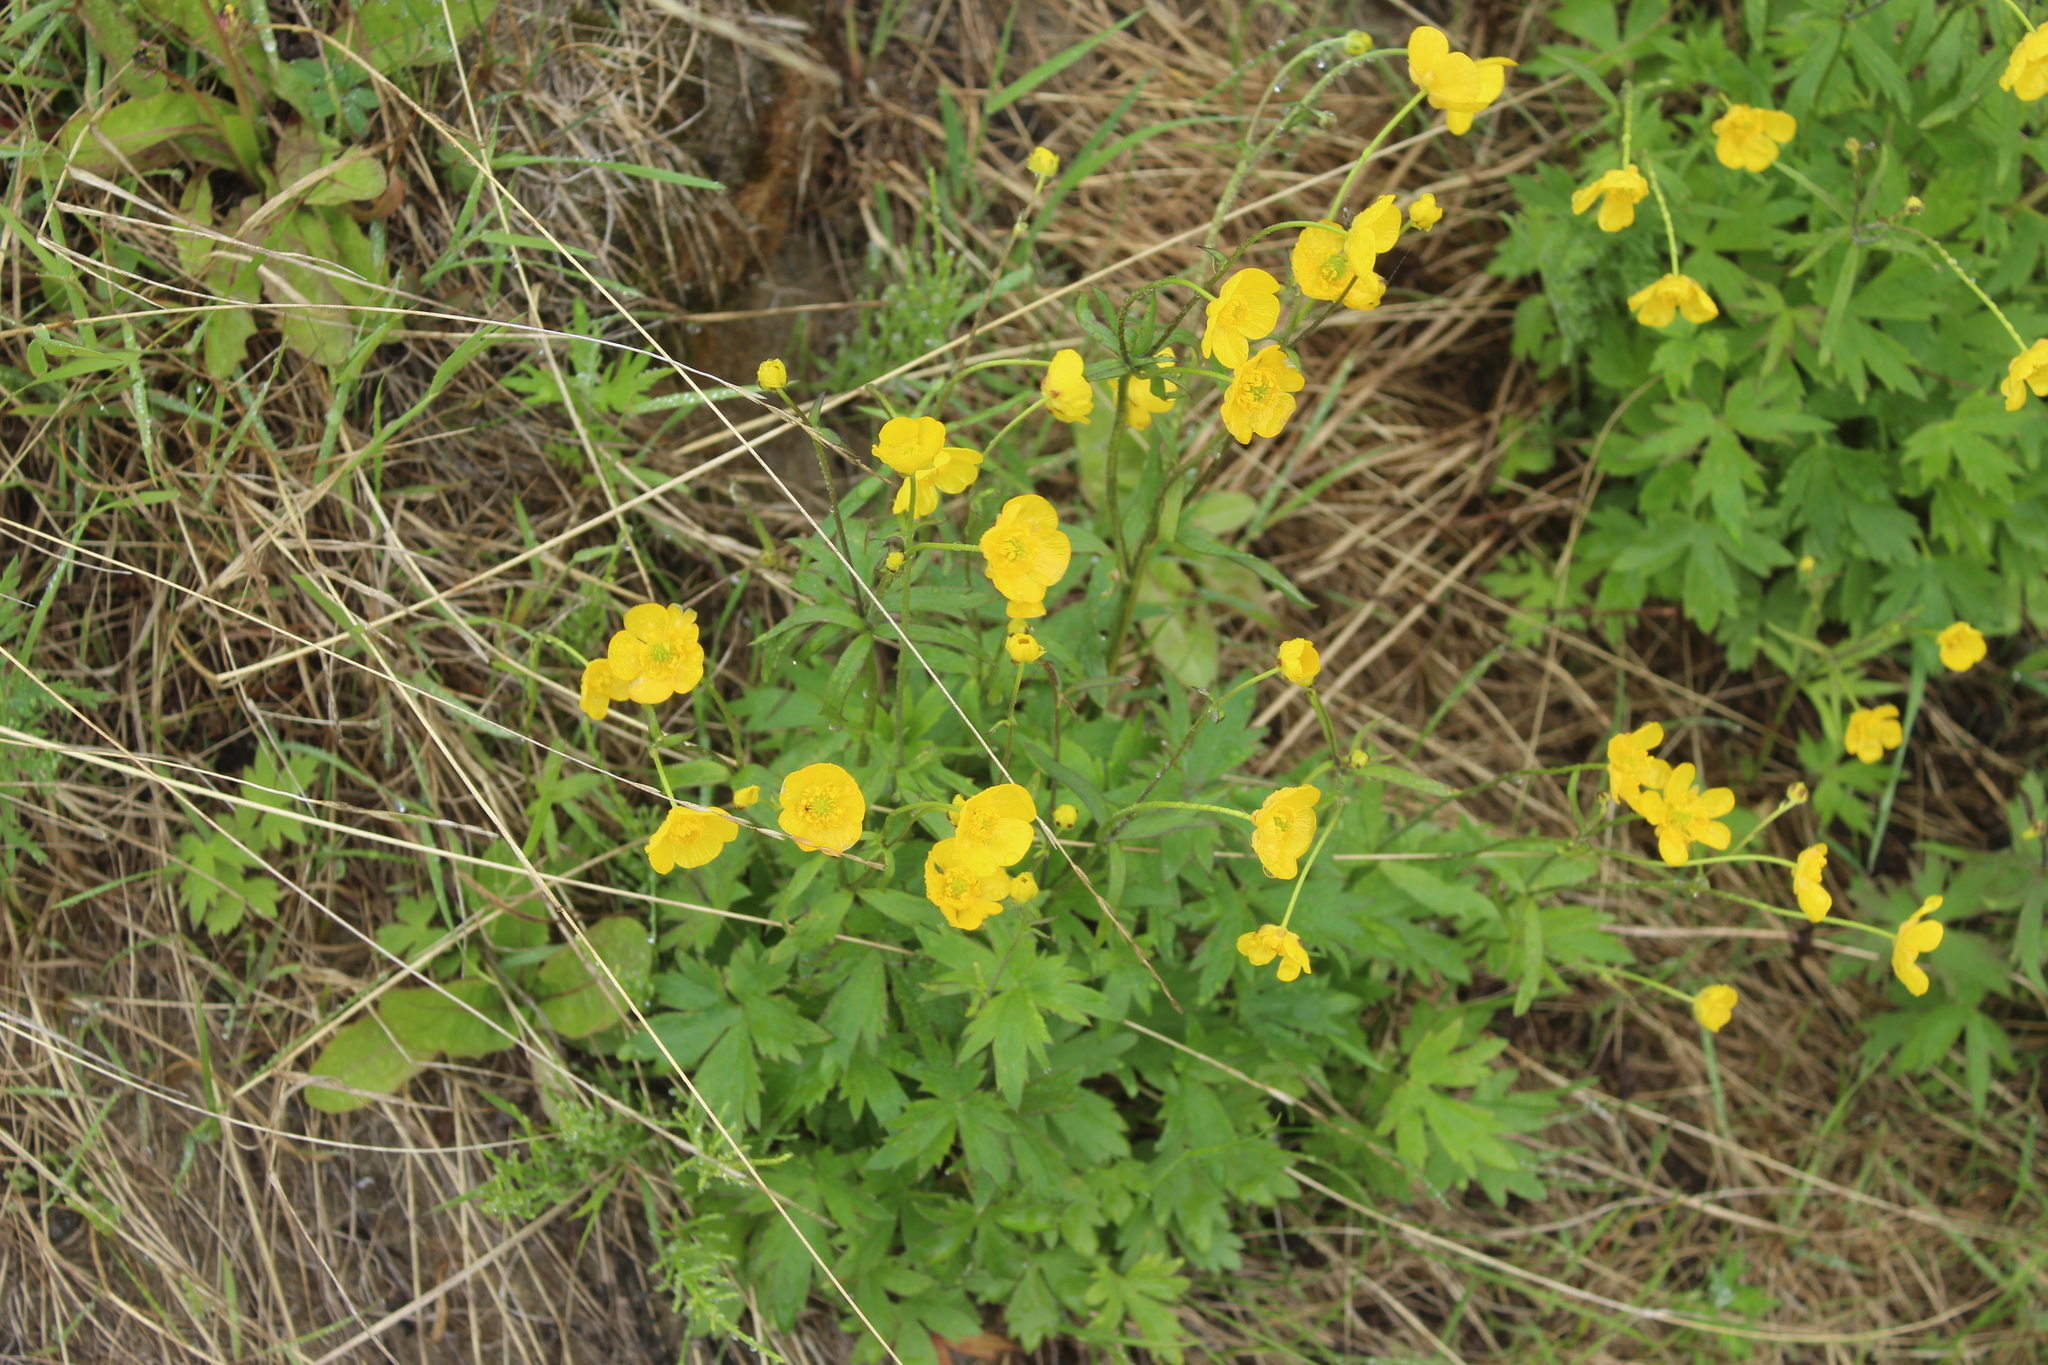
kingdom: Plantae
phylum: Tracheophyta
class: Magnoliopsida
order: Ranunculales
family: Ranunculaceae
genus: Ranunculus
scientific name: Ranunculus propinquus
